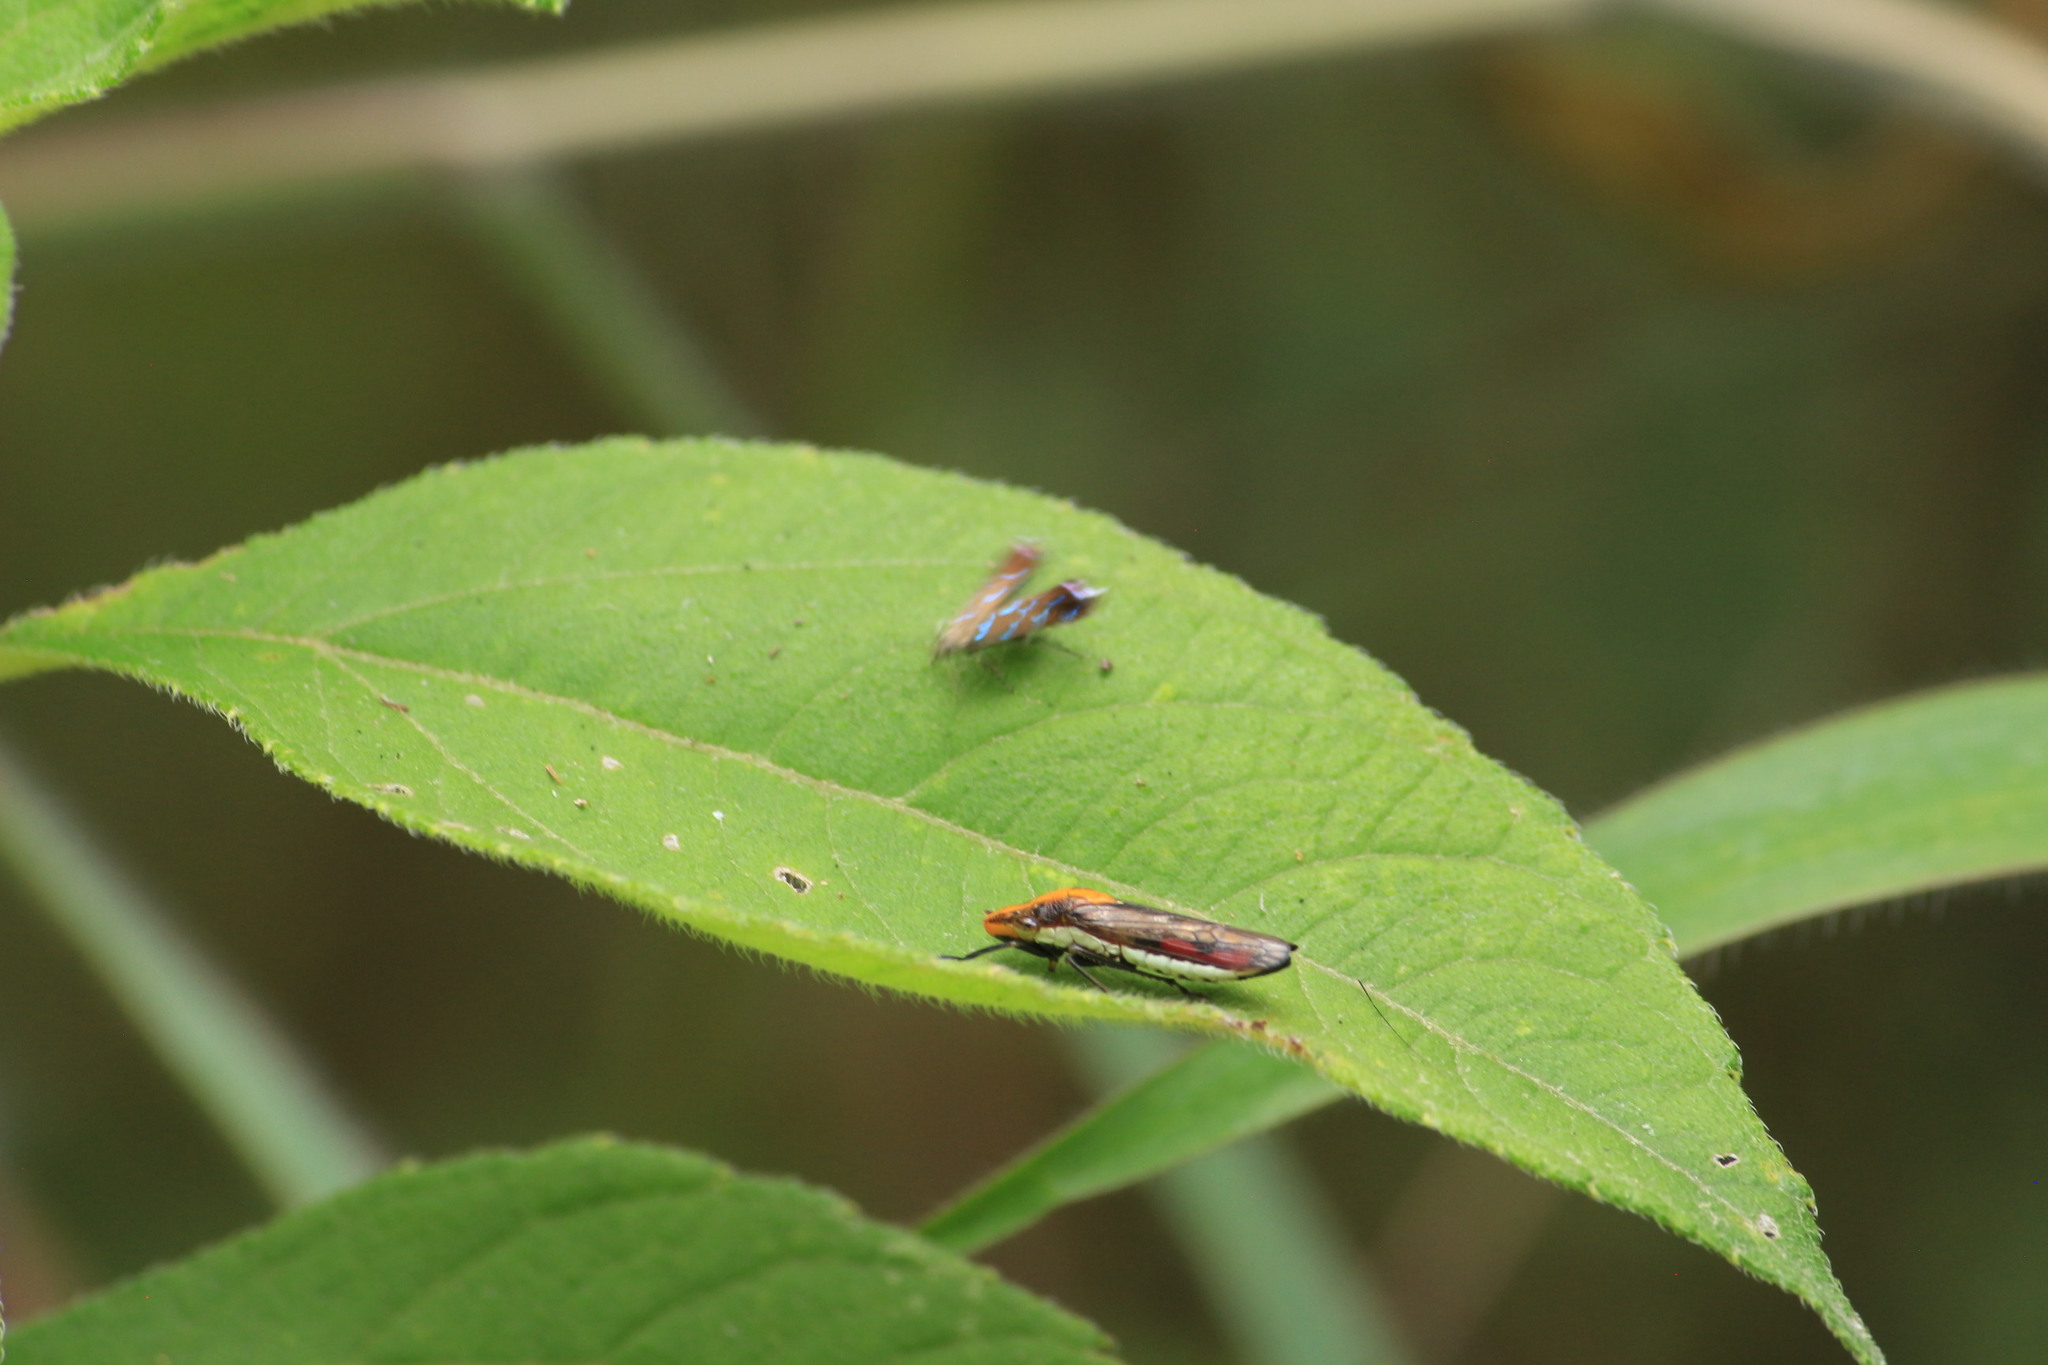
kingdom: Animalia
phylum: Arthropoda
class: Insecta
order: Hemiptera
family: Cicadellidae
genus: Phera
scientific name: Phera obtusifrons
